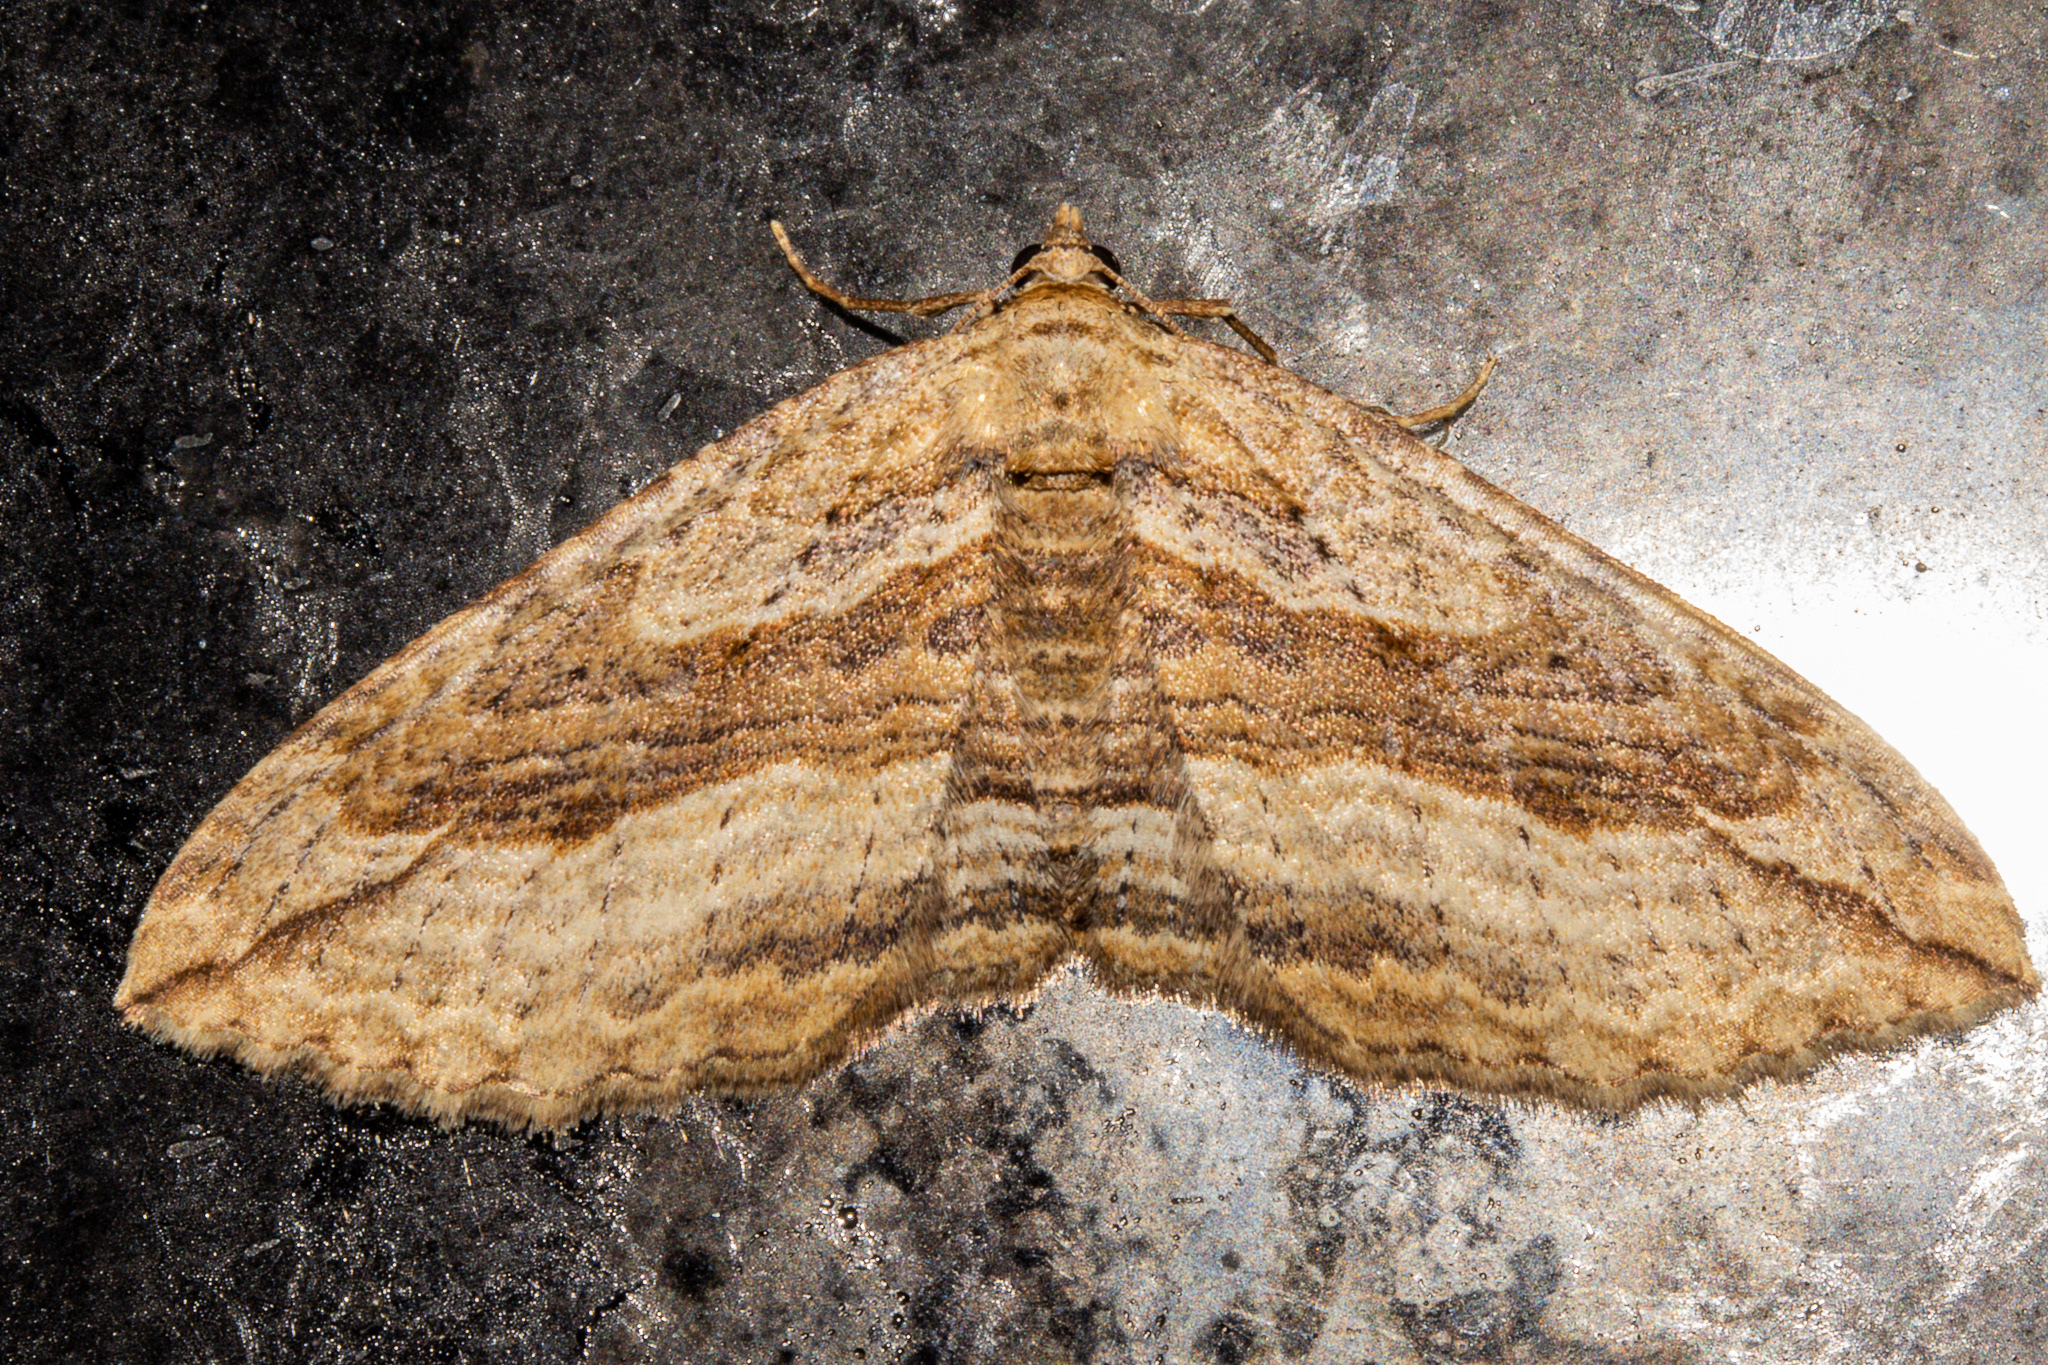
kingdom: Animalia
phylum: Arthropoda
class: Insecta
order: Lepidoptera
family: Geometridae
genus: Austrocidaria
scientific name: Austrocidaria gobiata
